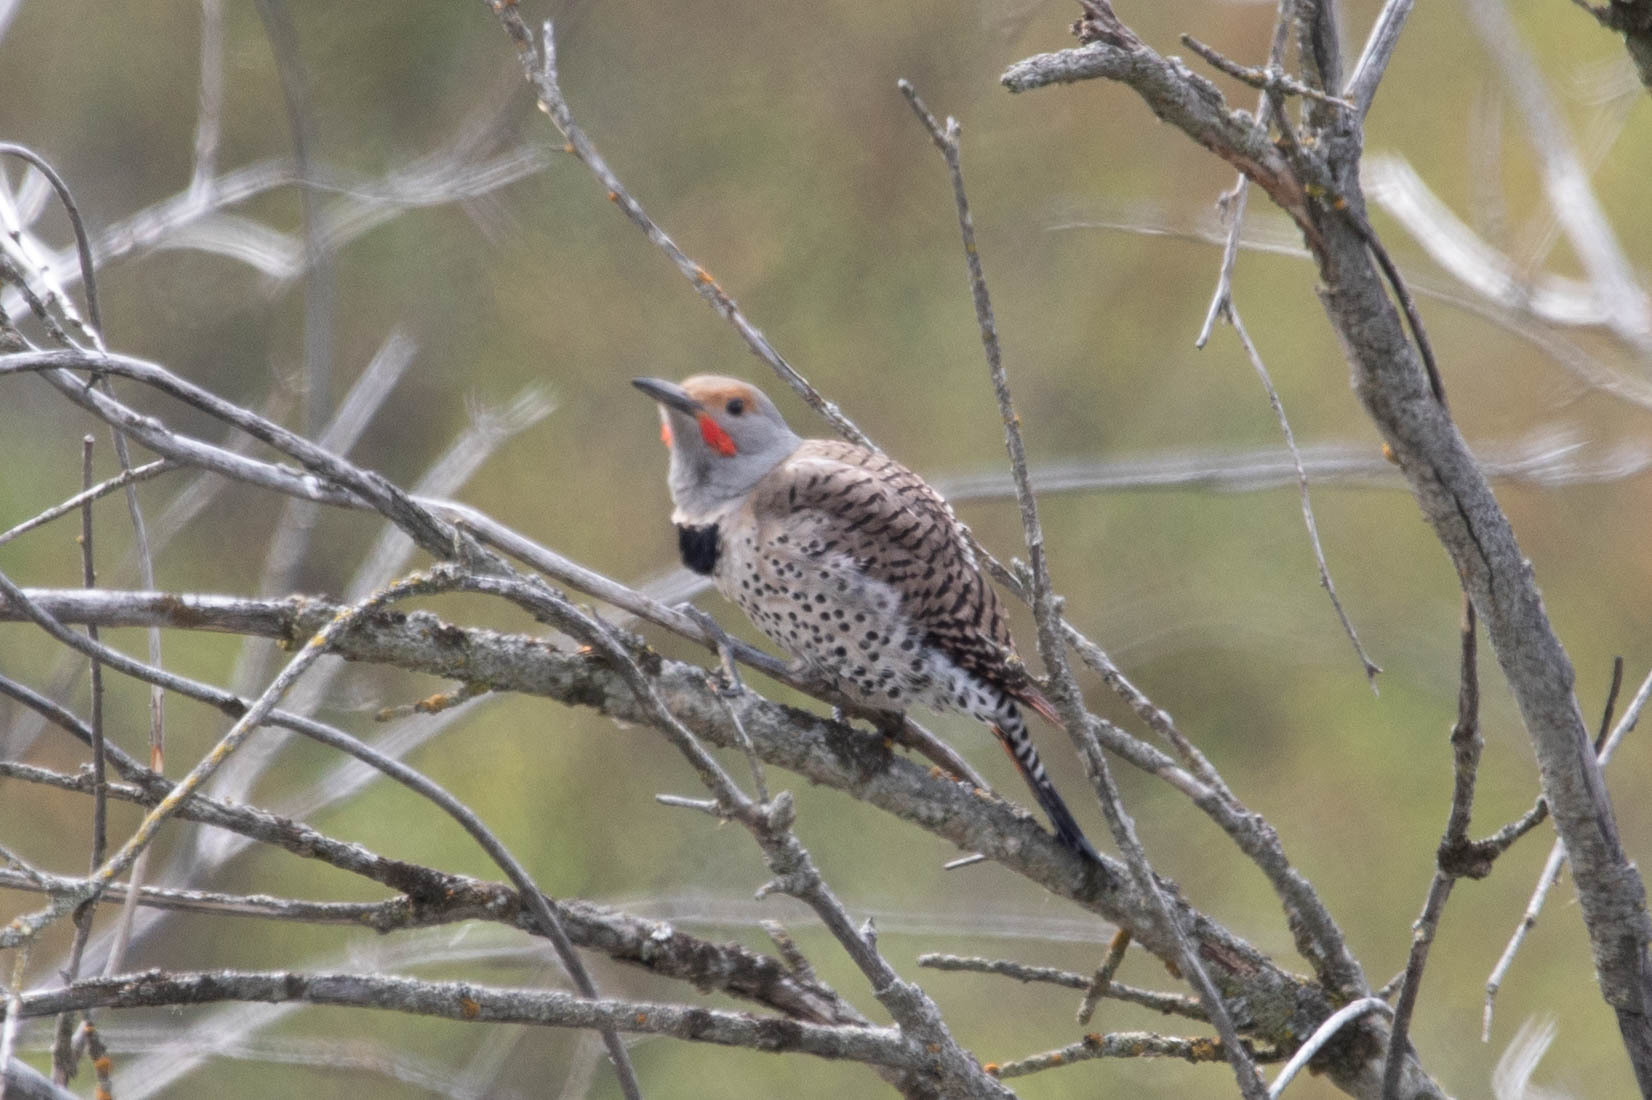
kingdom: Animalia
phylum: Chordata
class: Aves
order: Piciformes
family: Picidae
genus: Colaptes
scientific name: Colaptes auratus
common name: Northern flicker
